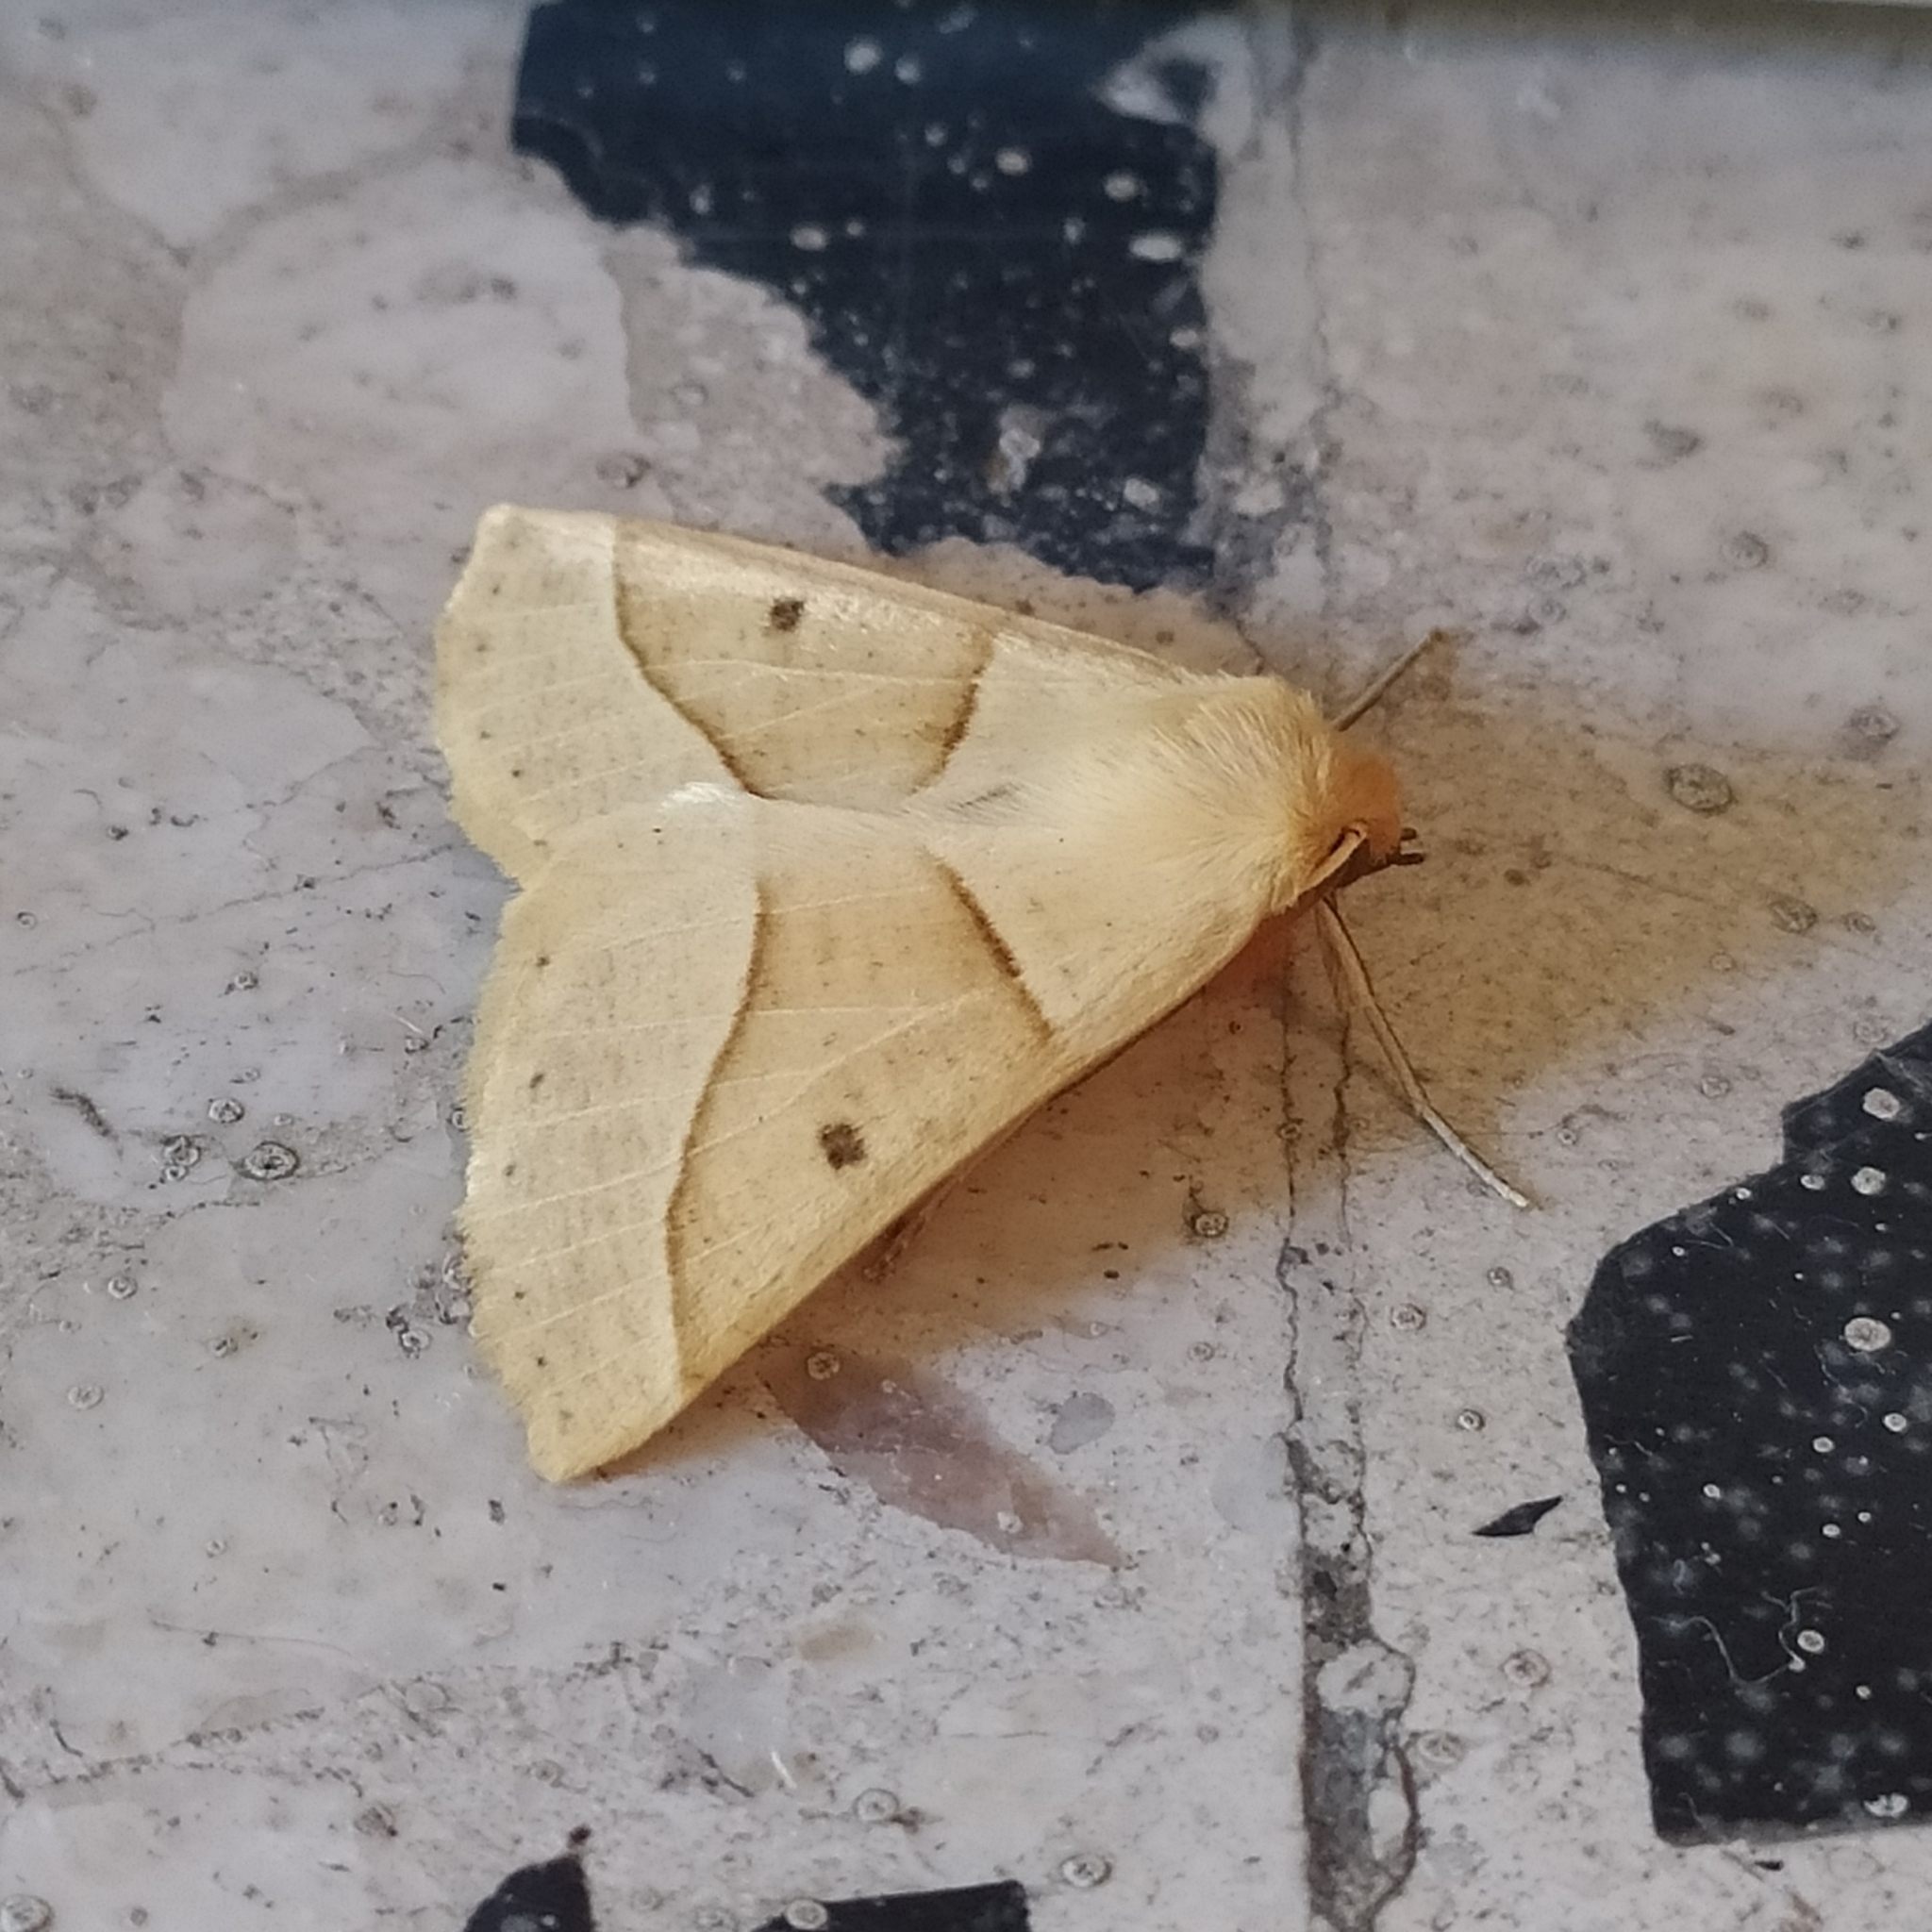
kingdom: Animalia
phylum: Arthropoda
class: Insecta
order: Lepidoptera
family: Geometridae
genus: Crocallis
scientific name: Crocallis elinguaria
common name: Scalloped oak
